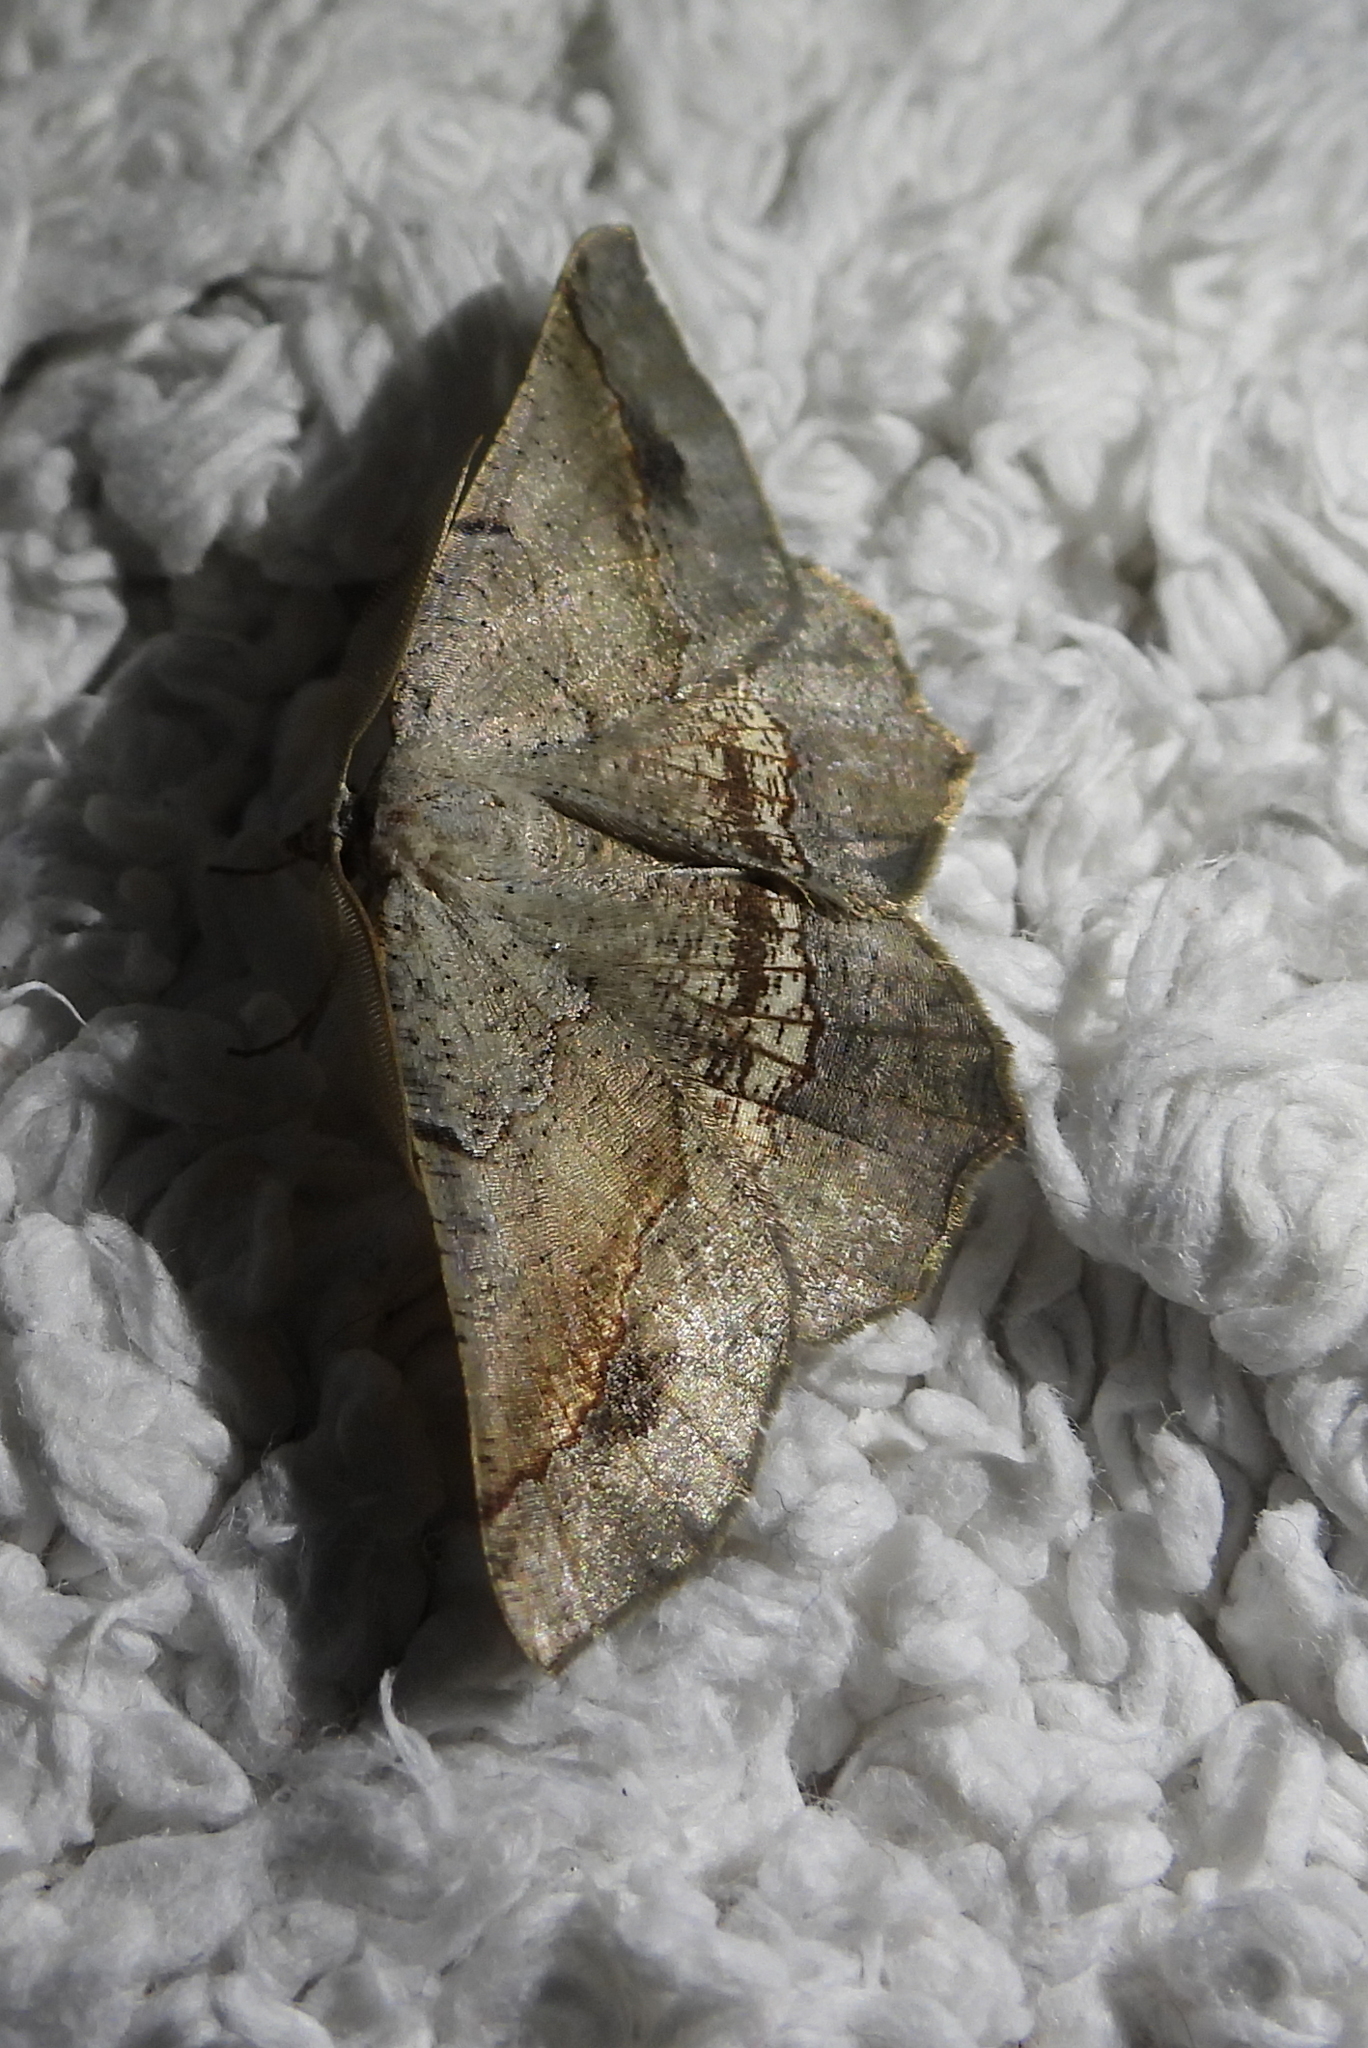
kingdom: Animalia
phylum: Arthropoda
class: Insecta
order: Lepidoptera
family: Geometridae
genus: Drepanogynis
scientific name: Drepanogynis mixtaria
